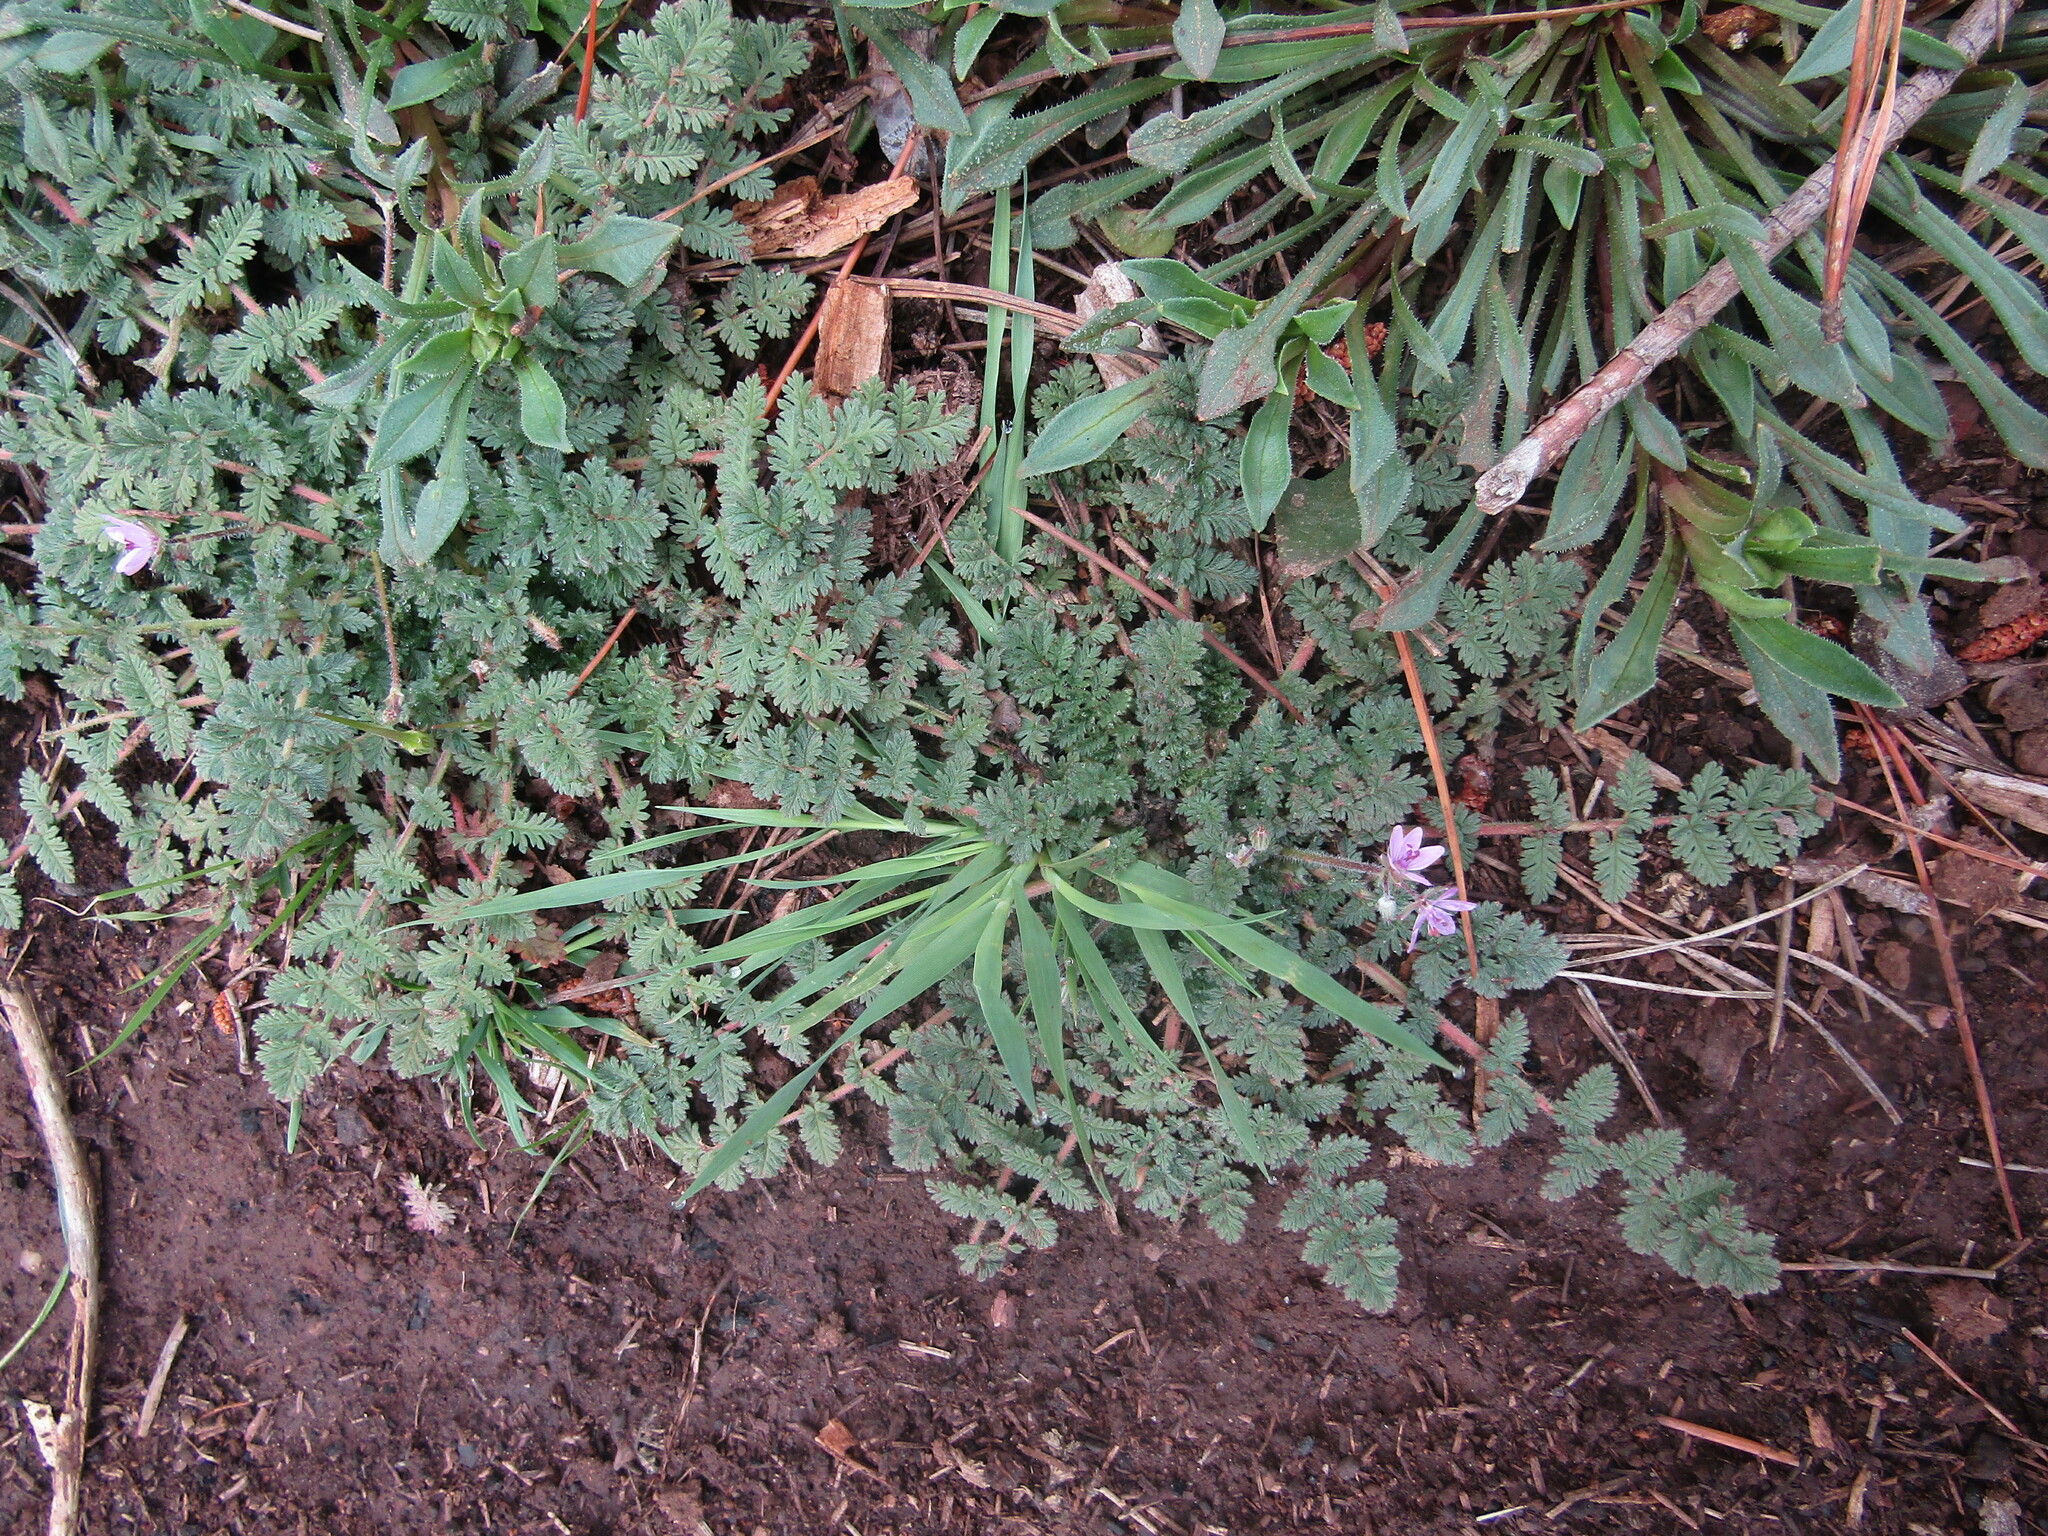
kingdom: Plantae
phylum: Tracheophyta
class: Magnoliopsida
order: Geraniales
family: Geraniaceae
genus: Erodium
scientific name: Erodium cicutarium
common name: Common stork's-bill
